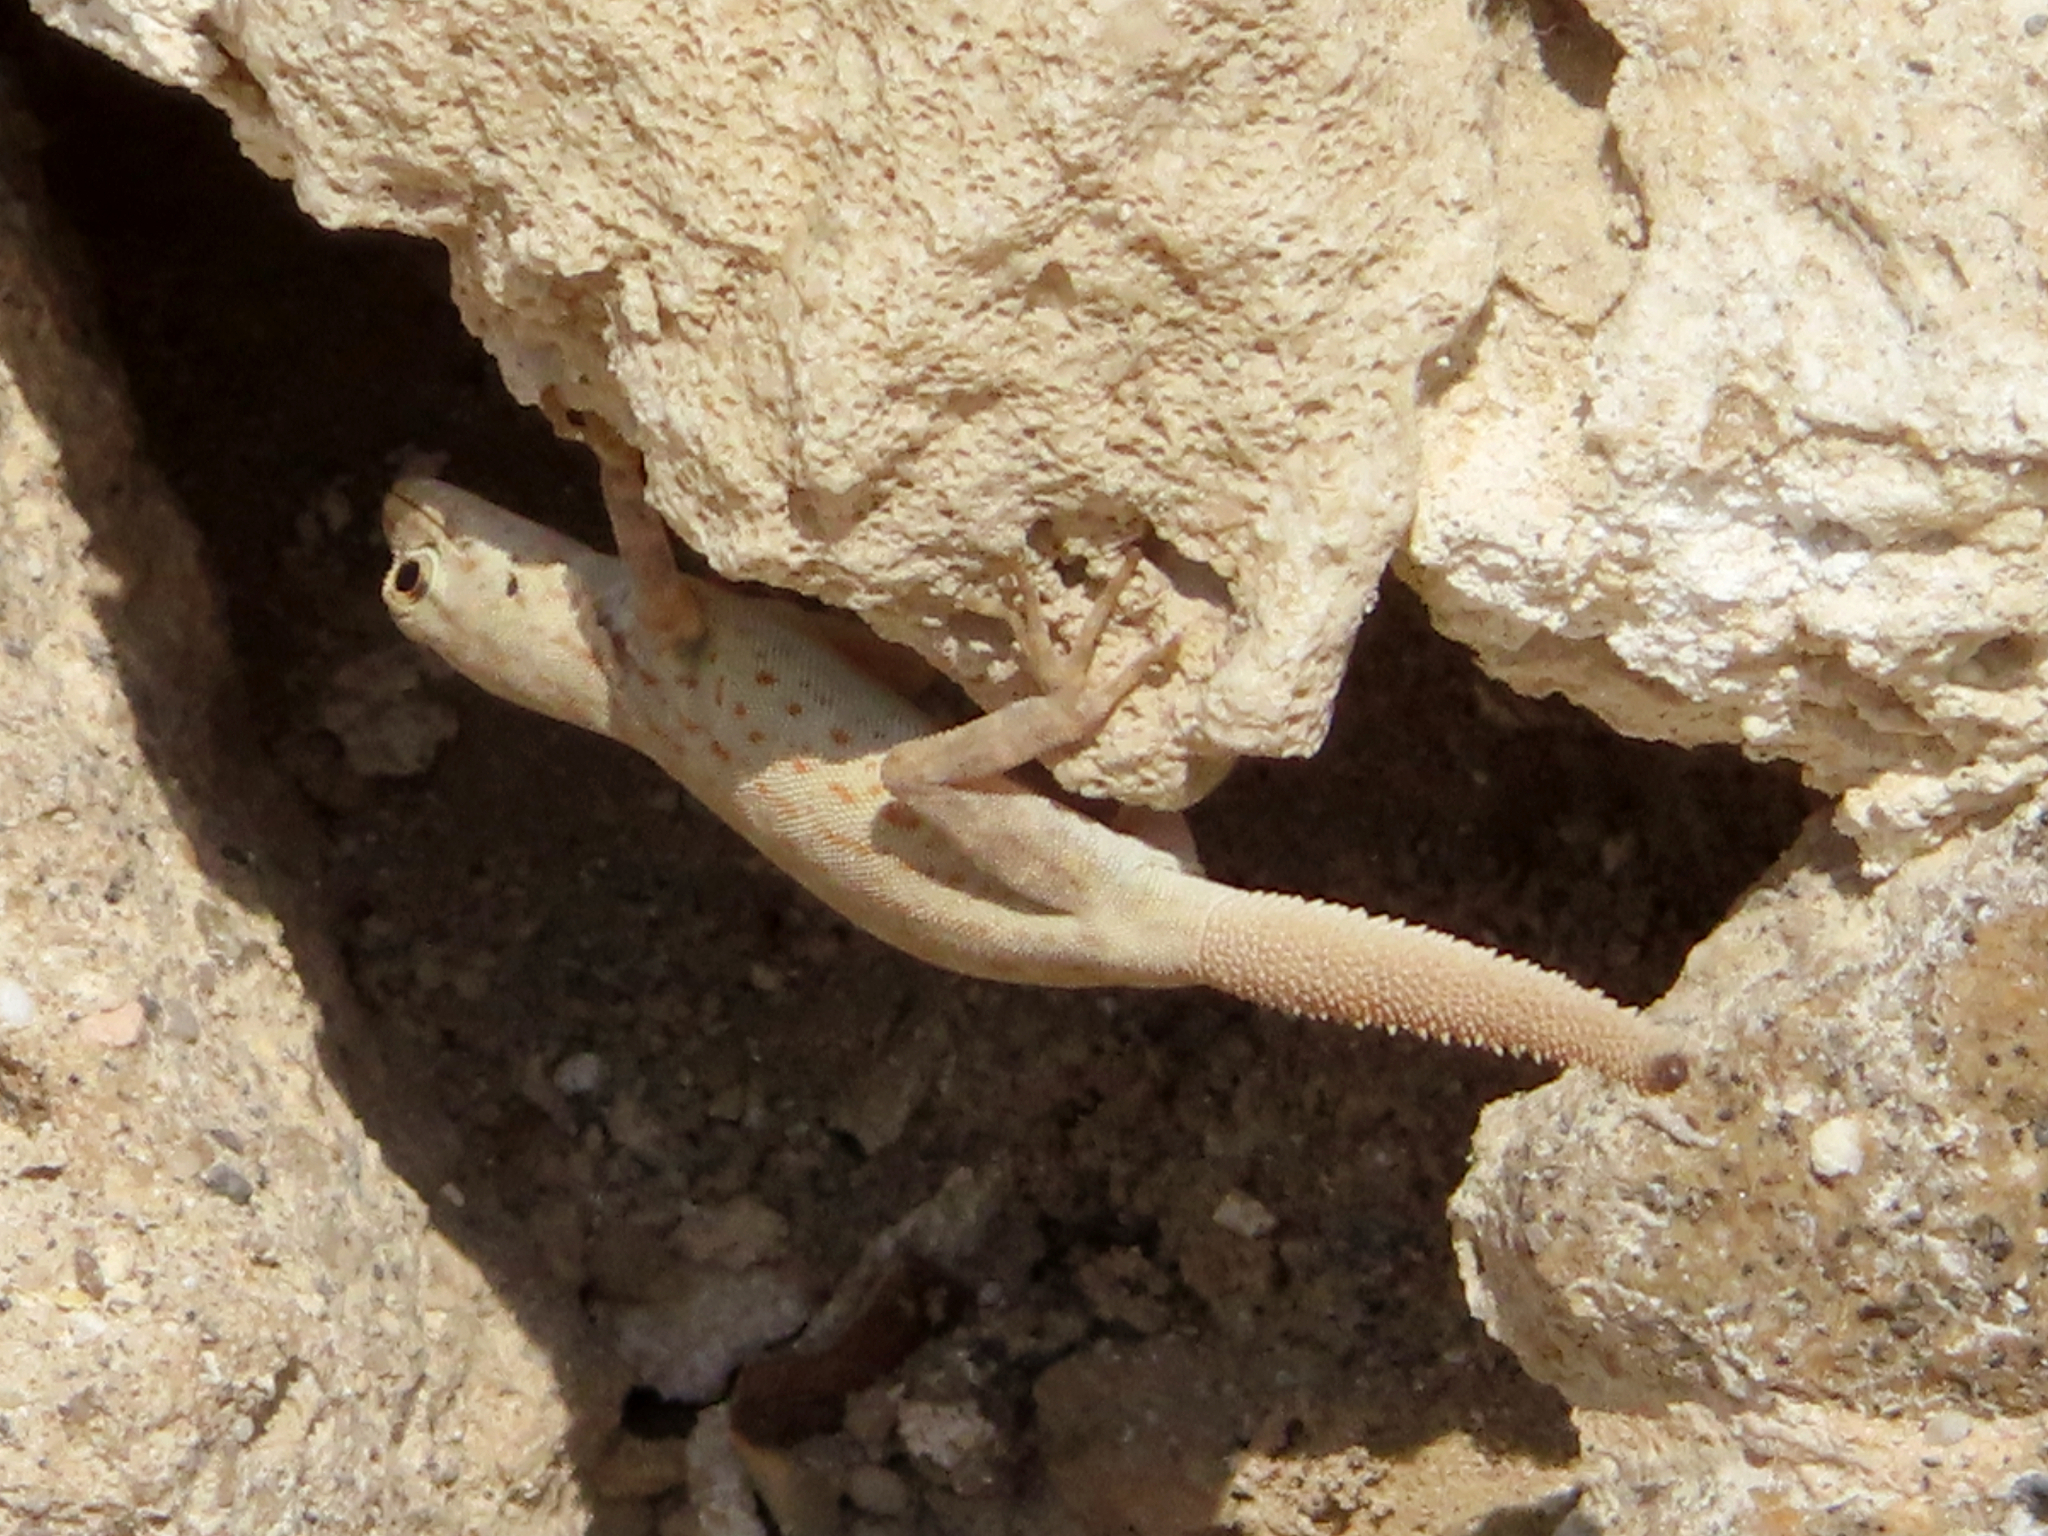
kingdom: Animalia
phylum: Chordata
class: Squamata
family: Sphaerodactylidae
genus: Pristurus
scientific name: Pristurus rupestris
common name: Blanford’s semaphore gecko
